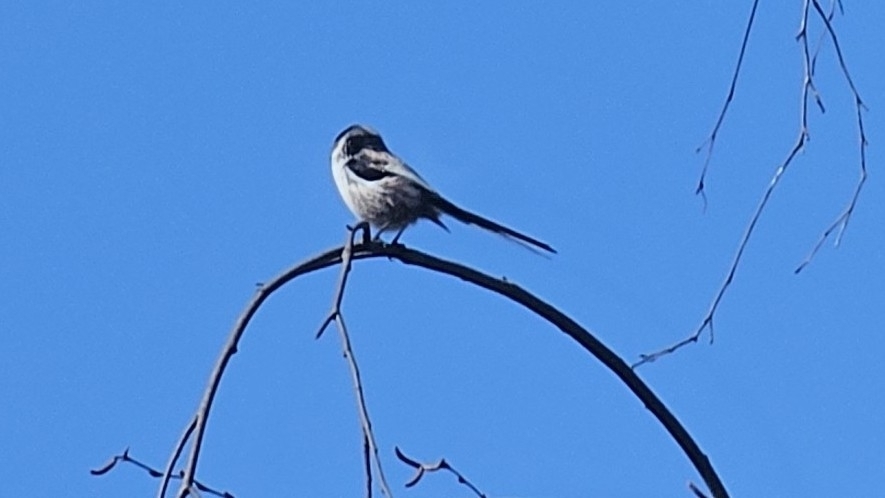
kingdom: Animalia
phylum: Chordata
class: Aves
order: Passeriformes
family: Aegithalidae
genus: Aegithalos
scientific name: Aegithalos caudatus
